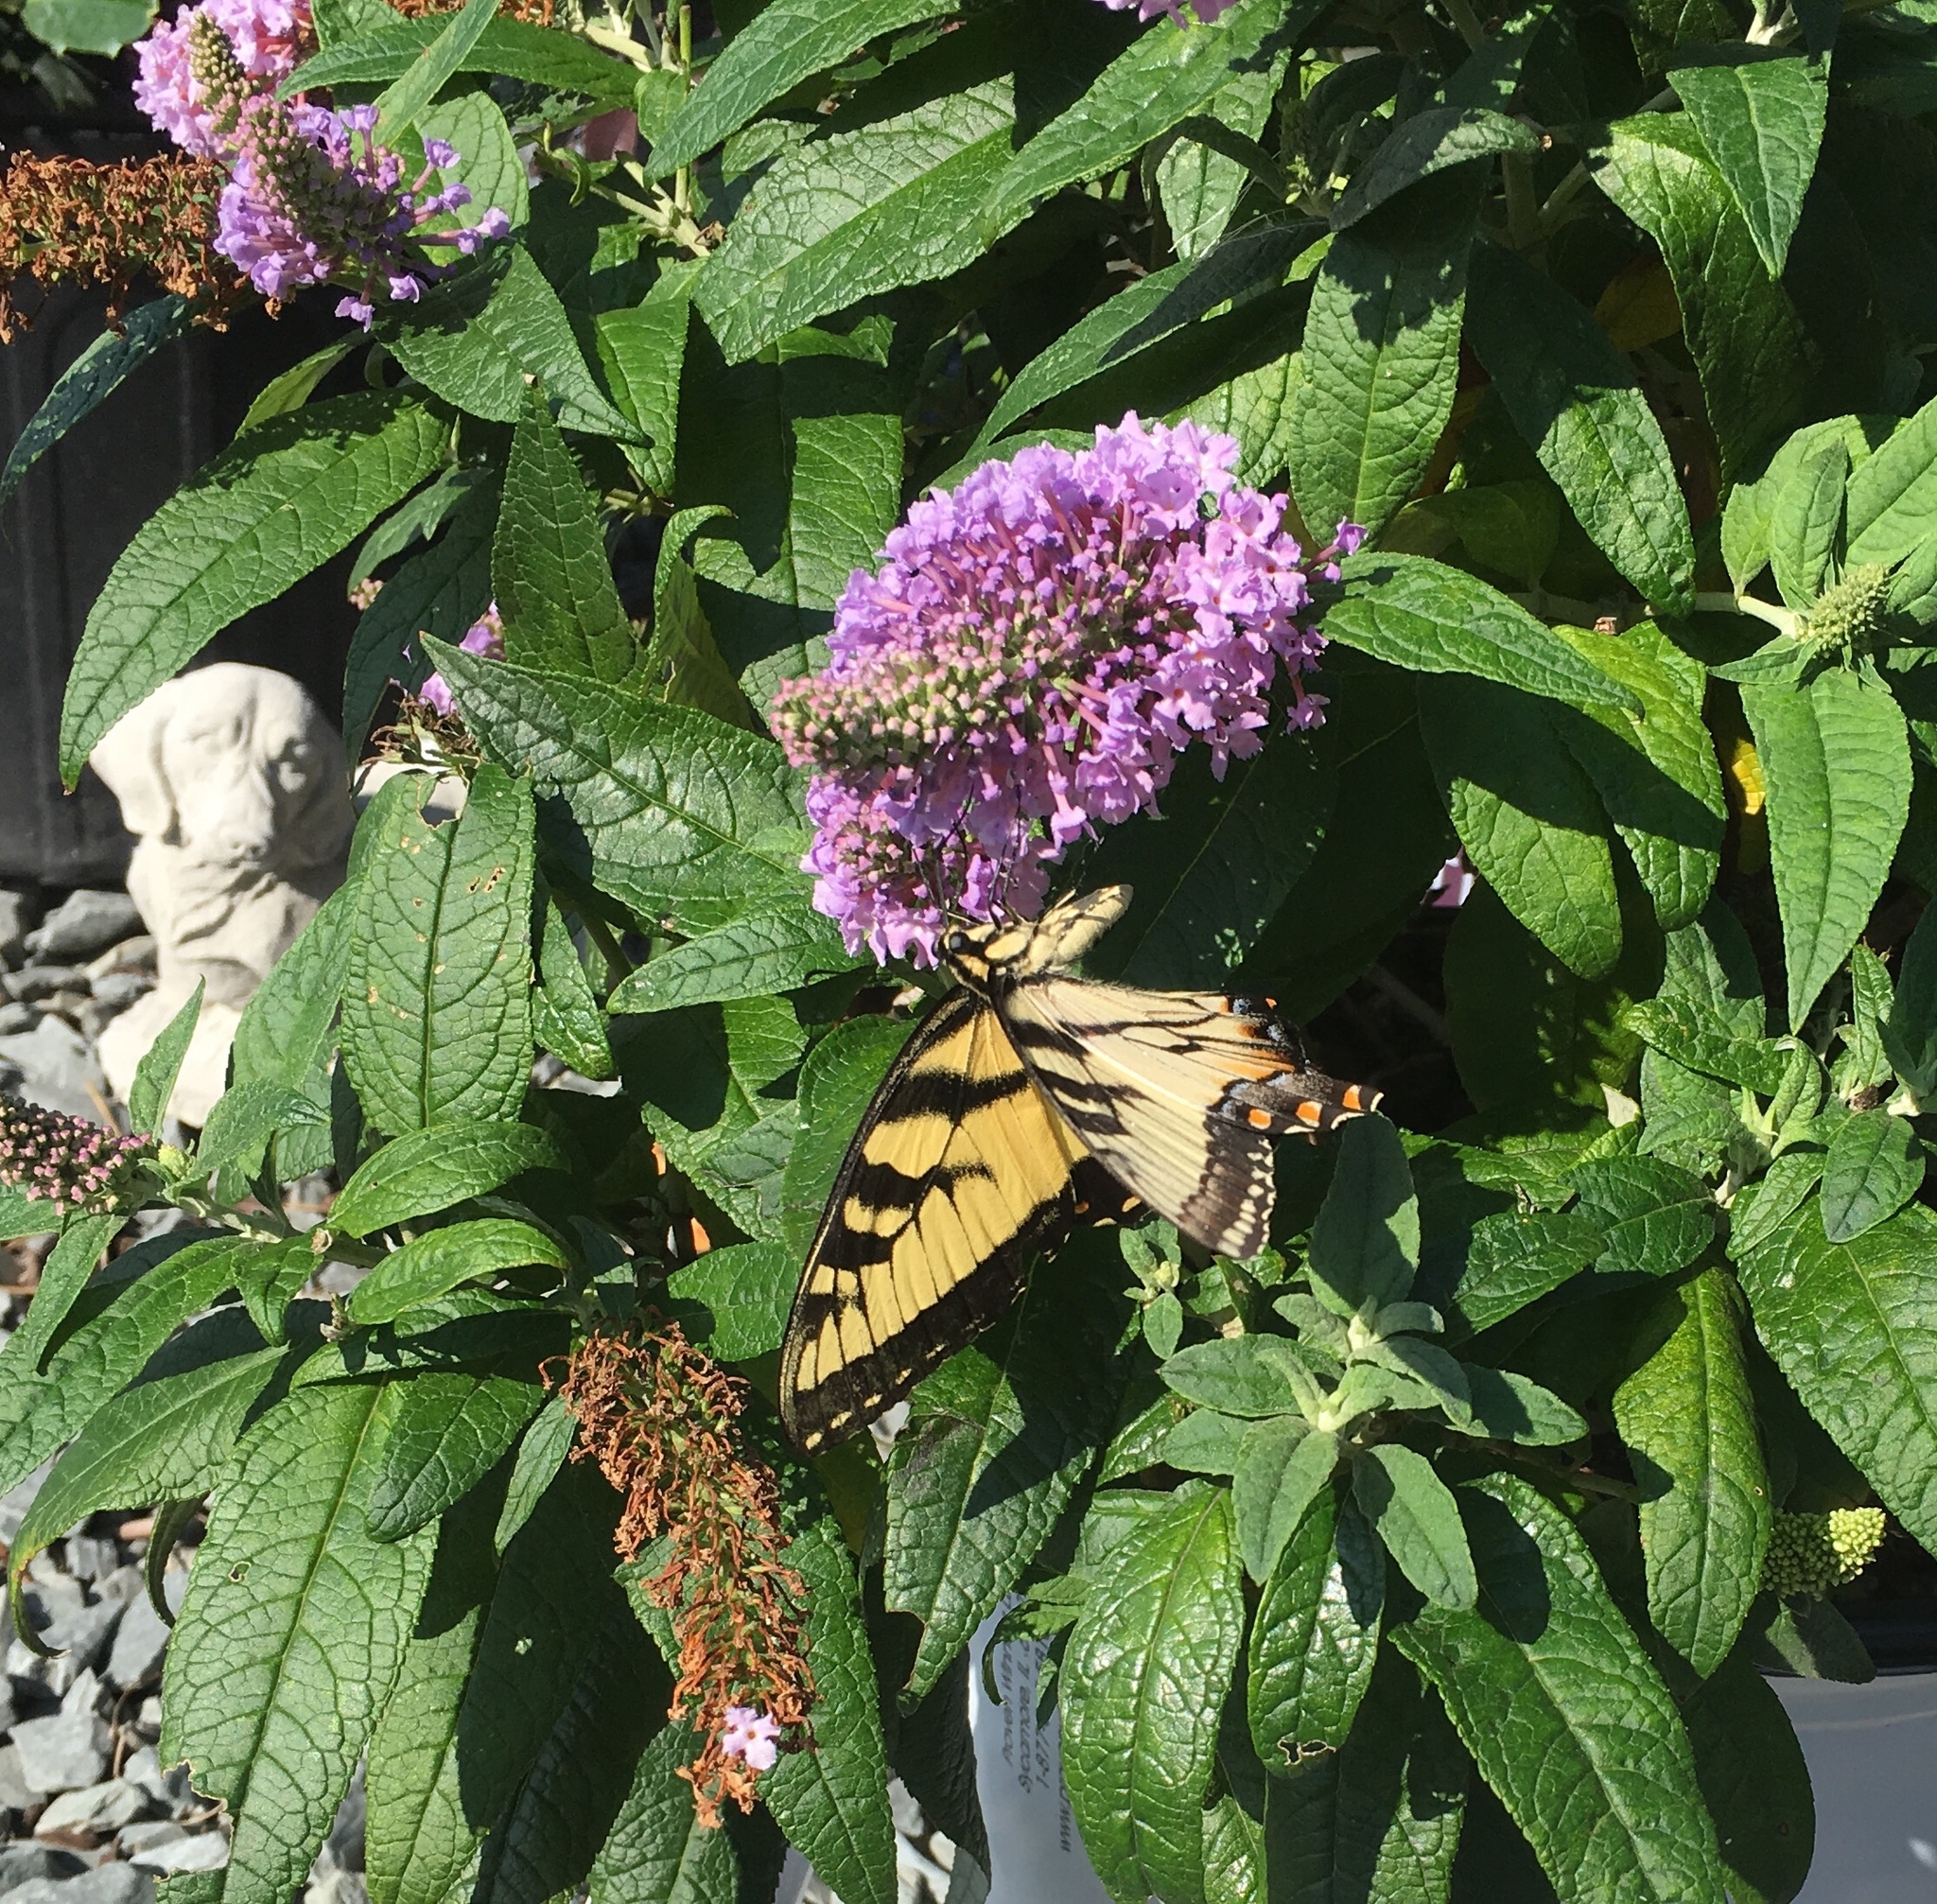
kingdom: Animalia
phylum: Arthropoda
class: Insecta
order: Lepidoptera
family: Papilionidae
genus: Papilio
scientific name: Papilio glaucus
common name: Tiger swallowtail
